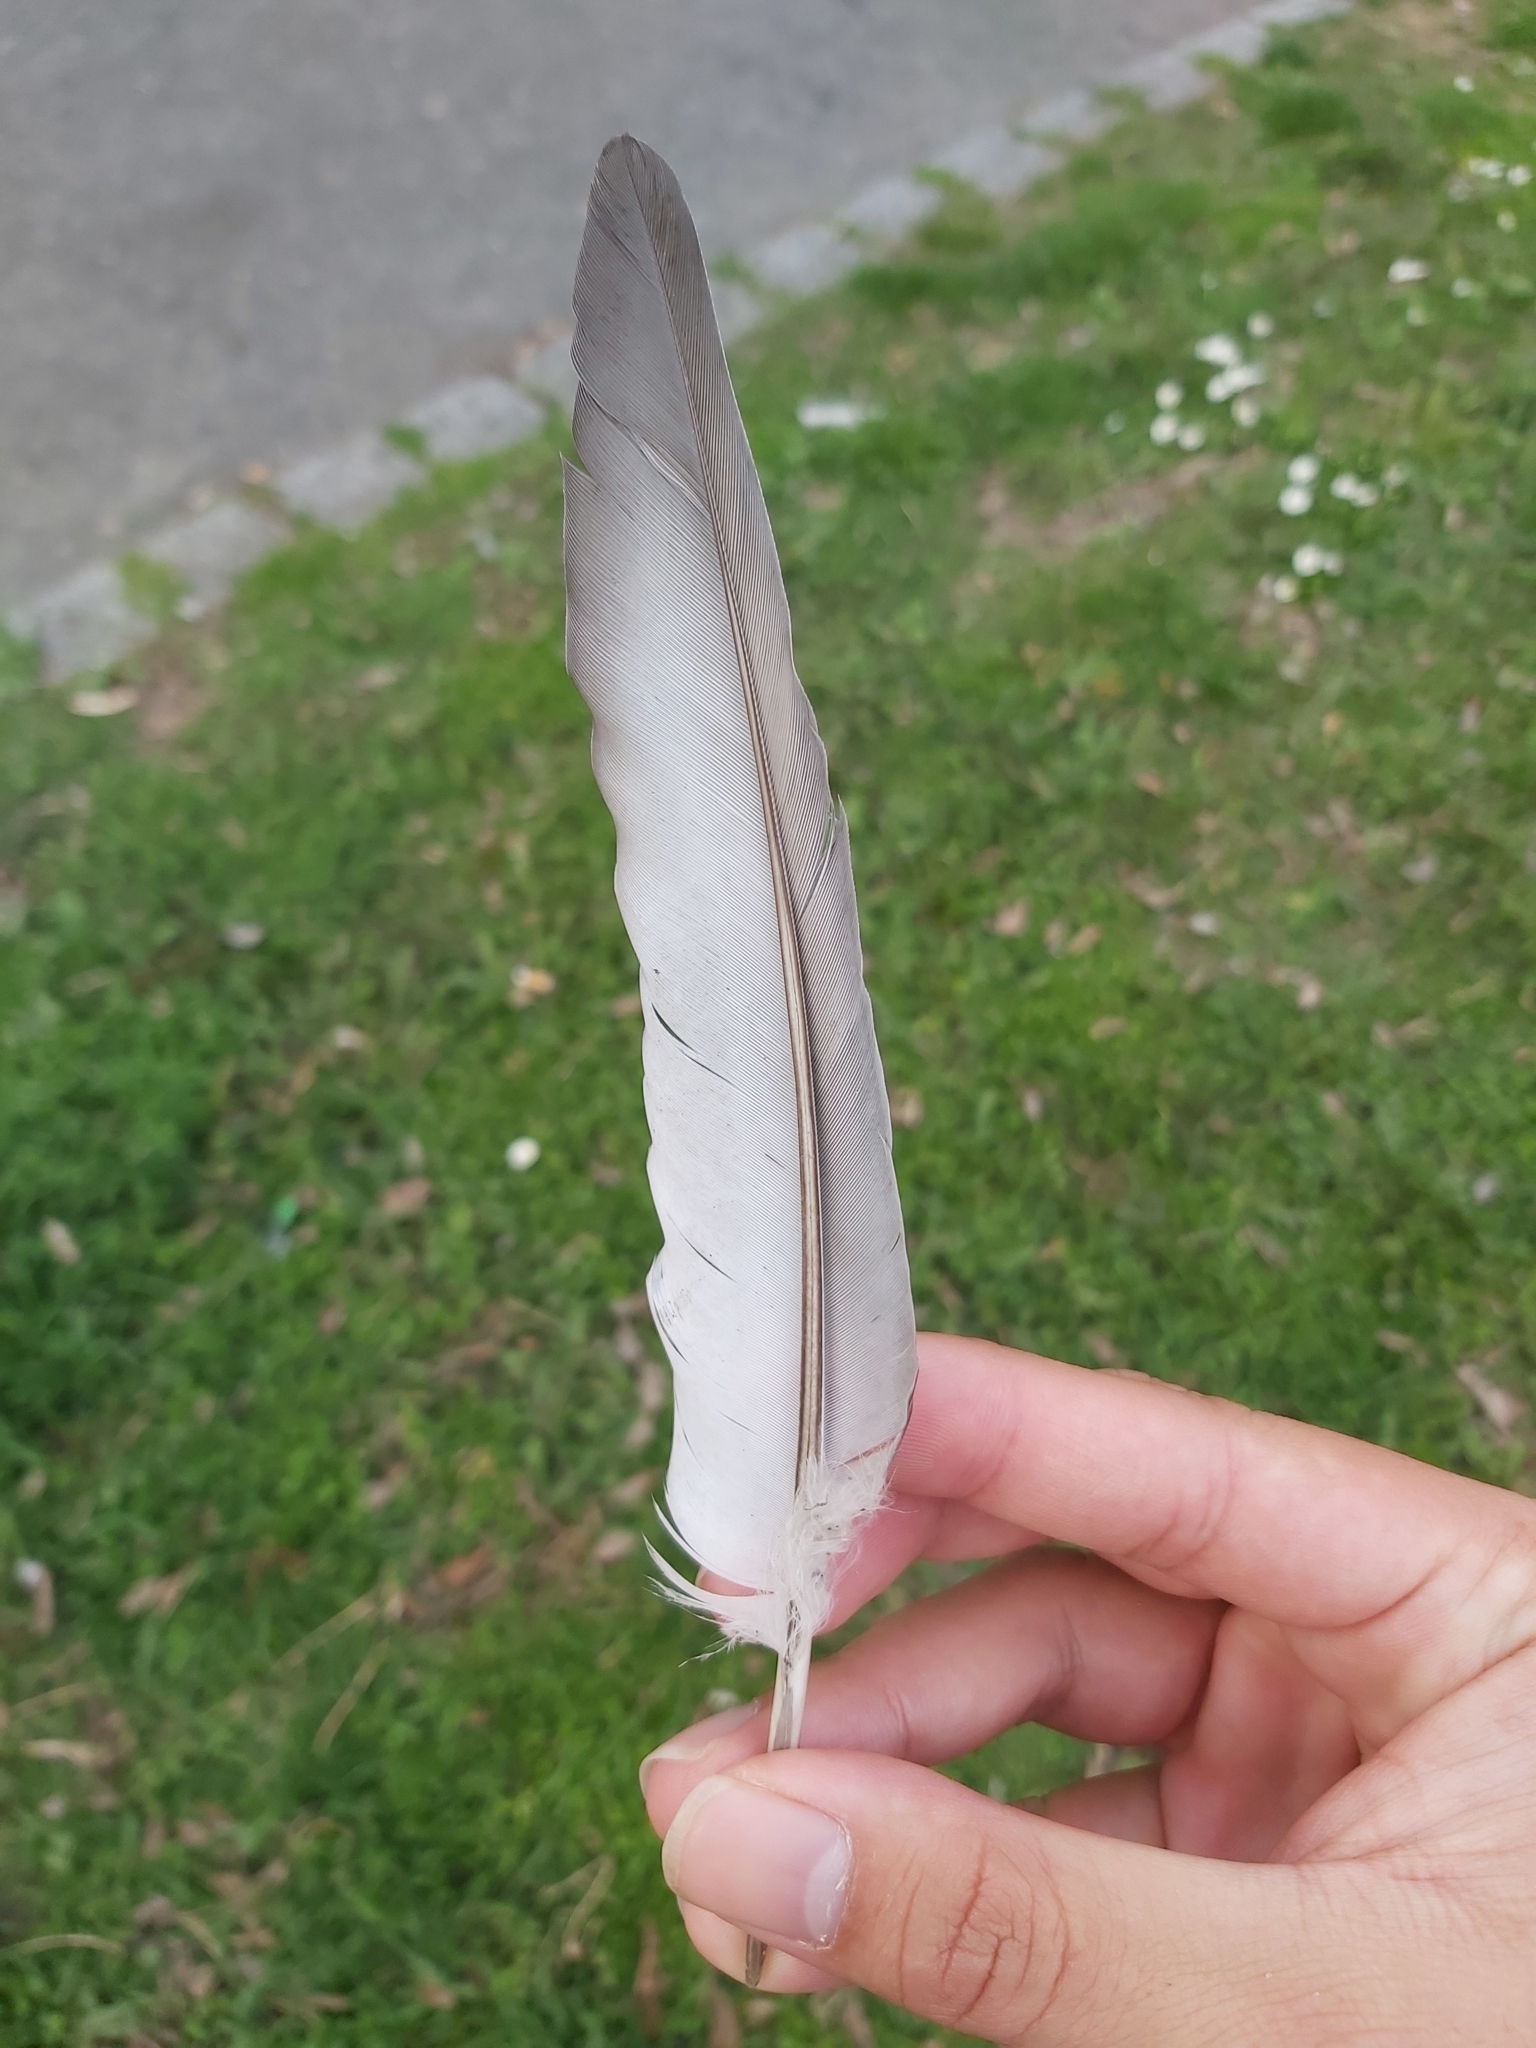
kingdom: Animalia
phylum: Chordata
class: Aves
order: Columbiformes
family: Columbidae
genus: Columba
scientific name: Columba livia
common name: Rock pigeon
